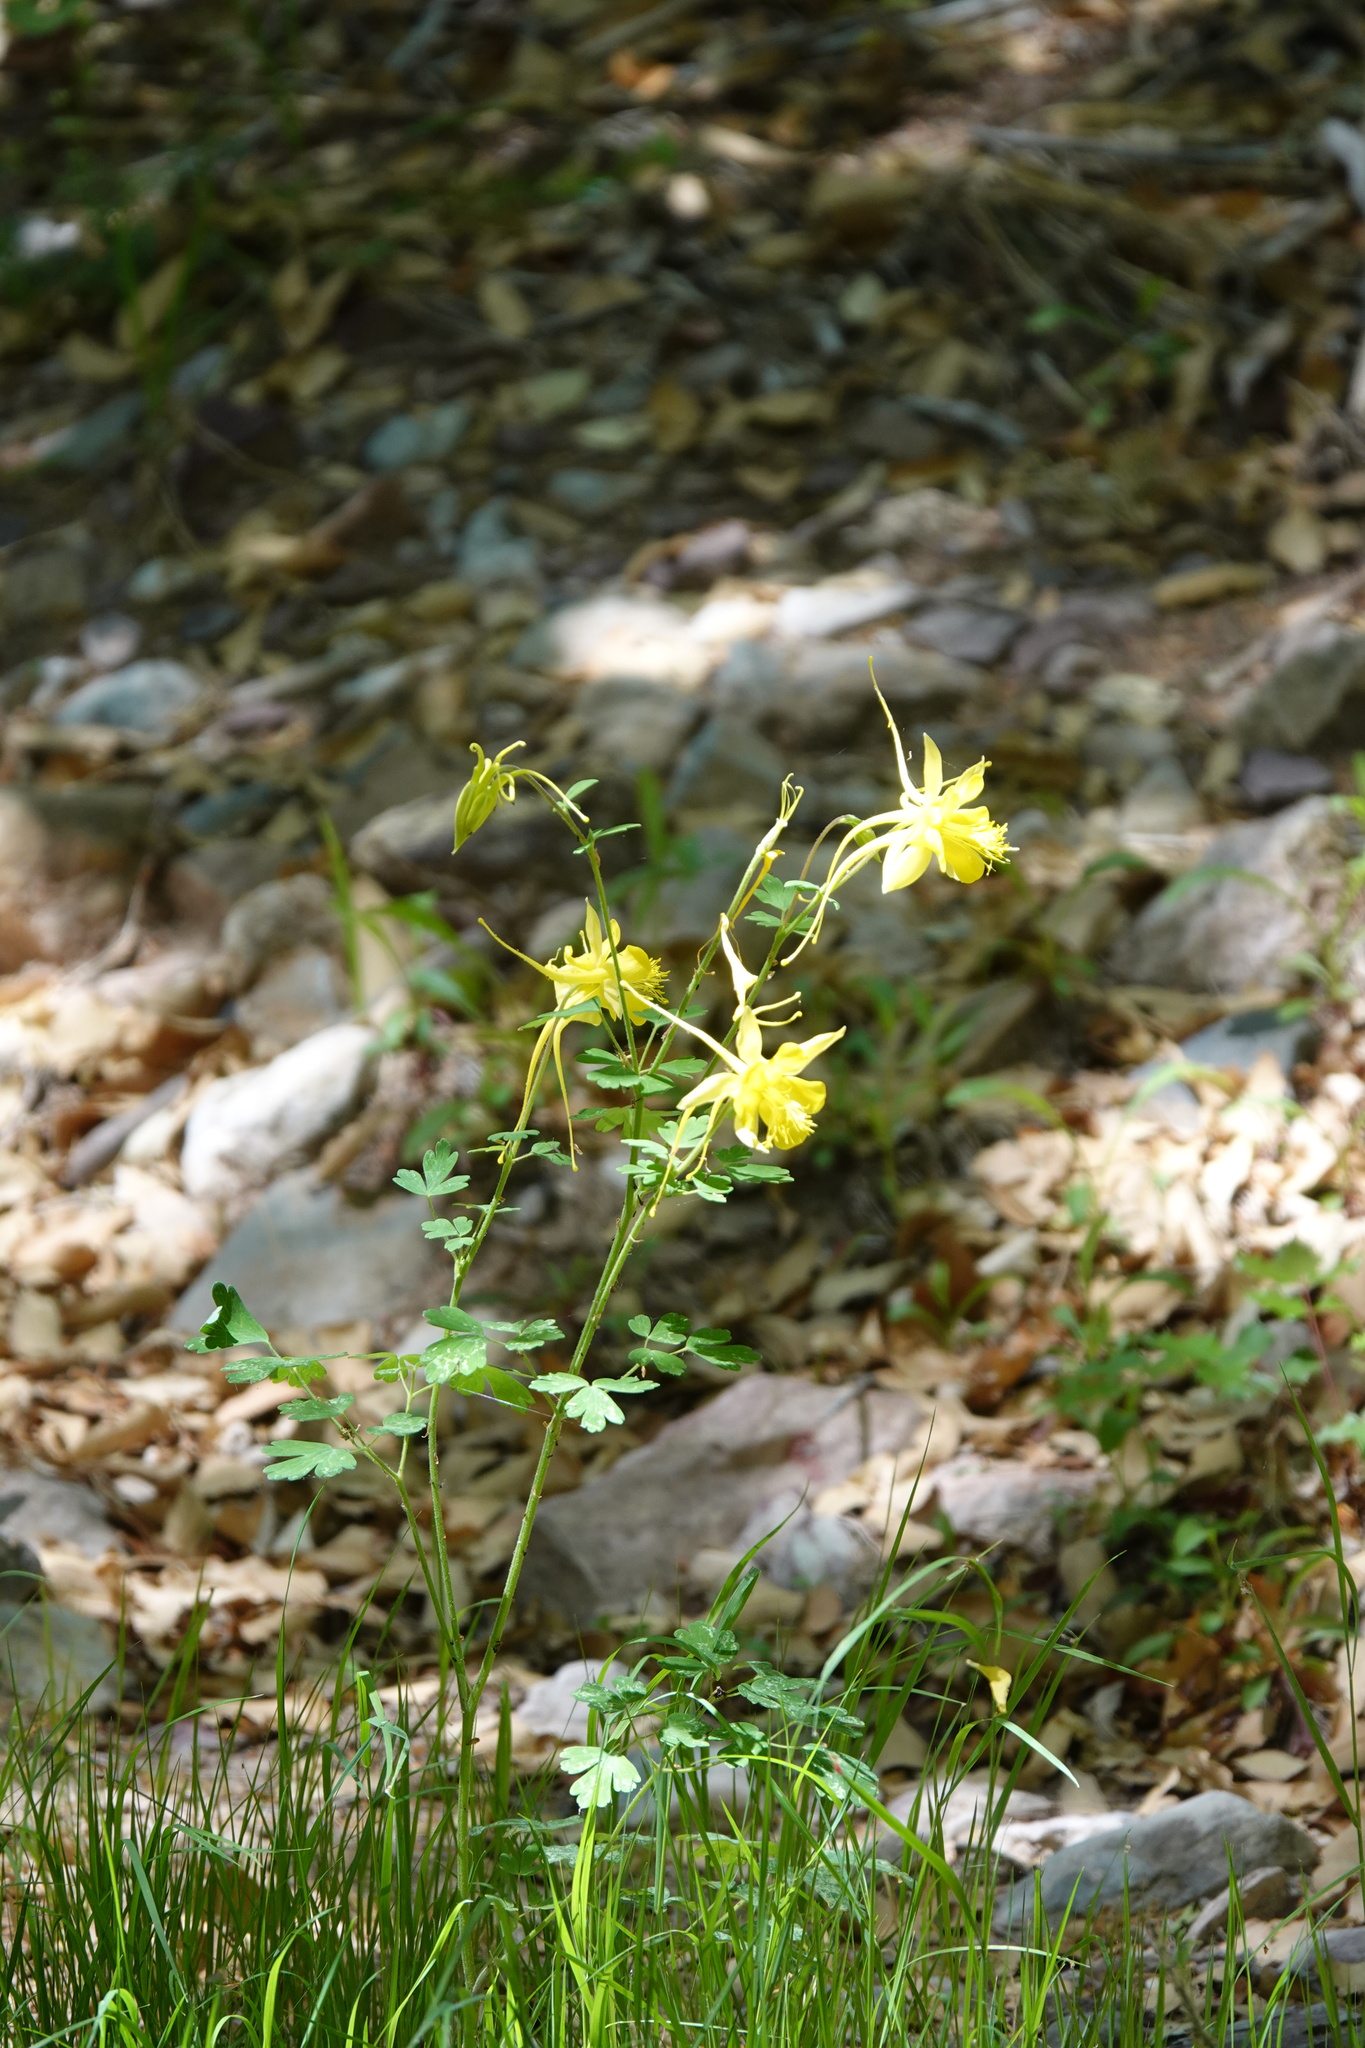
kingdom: Plantae
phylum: Tracheophyta
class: Magnoliopsida
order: Ranunculales
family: Ranunculaceae
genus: Aquilegia
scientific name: Aquilegia chrysantha
